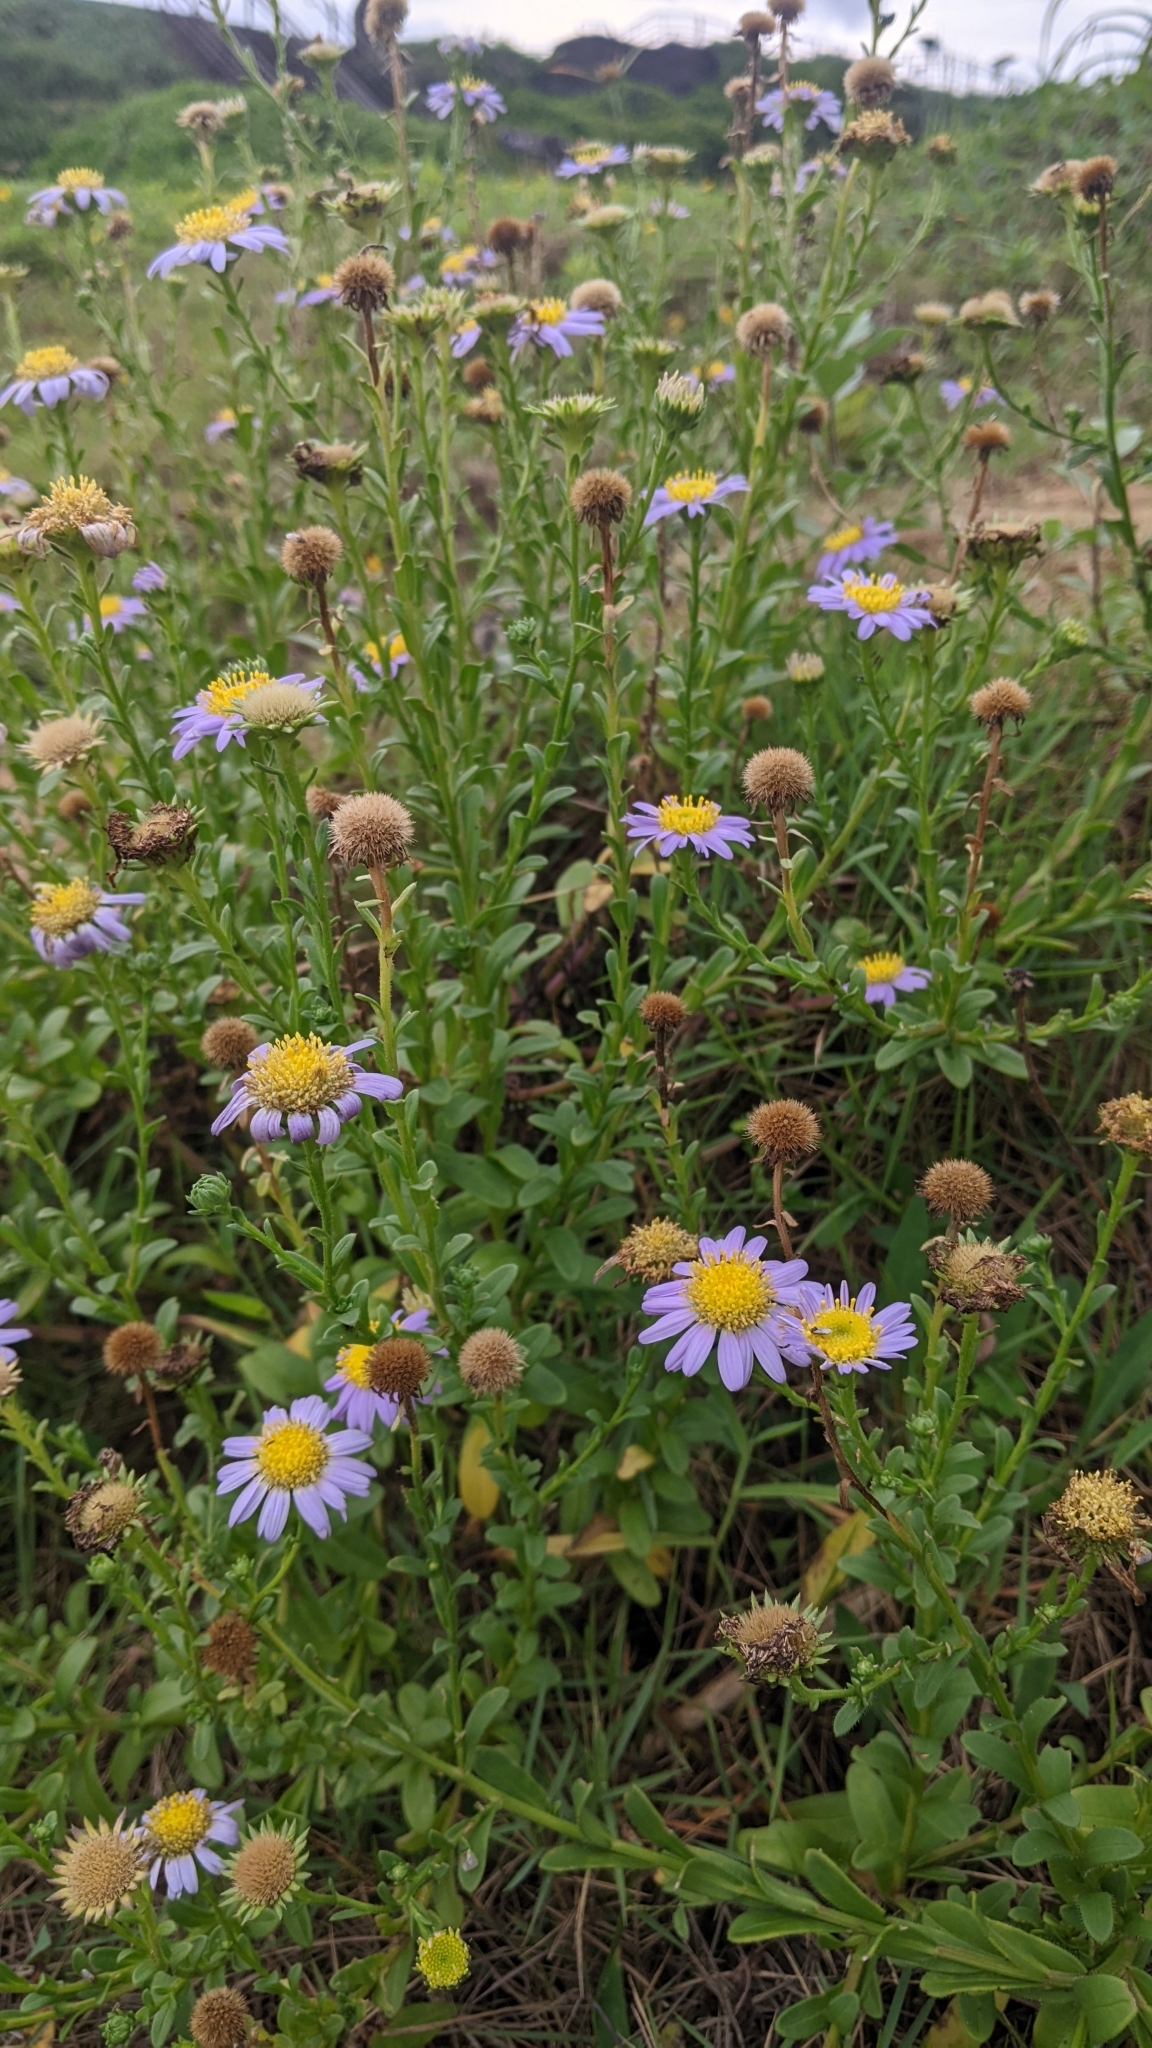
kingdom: Plantae
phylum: Tracheophyta
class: Magnoliopsida
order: Asterales
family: Asteraceae
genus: Heteropappus
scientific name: Heteropappus oldhamii
